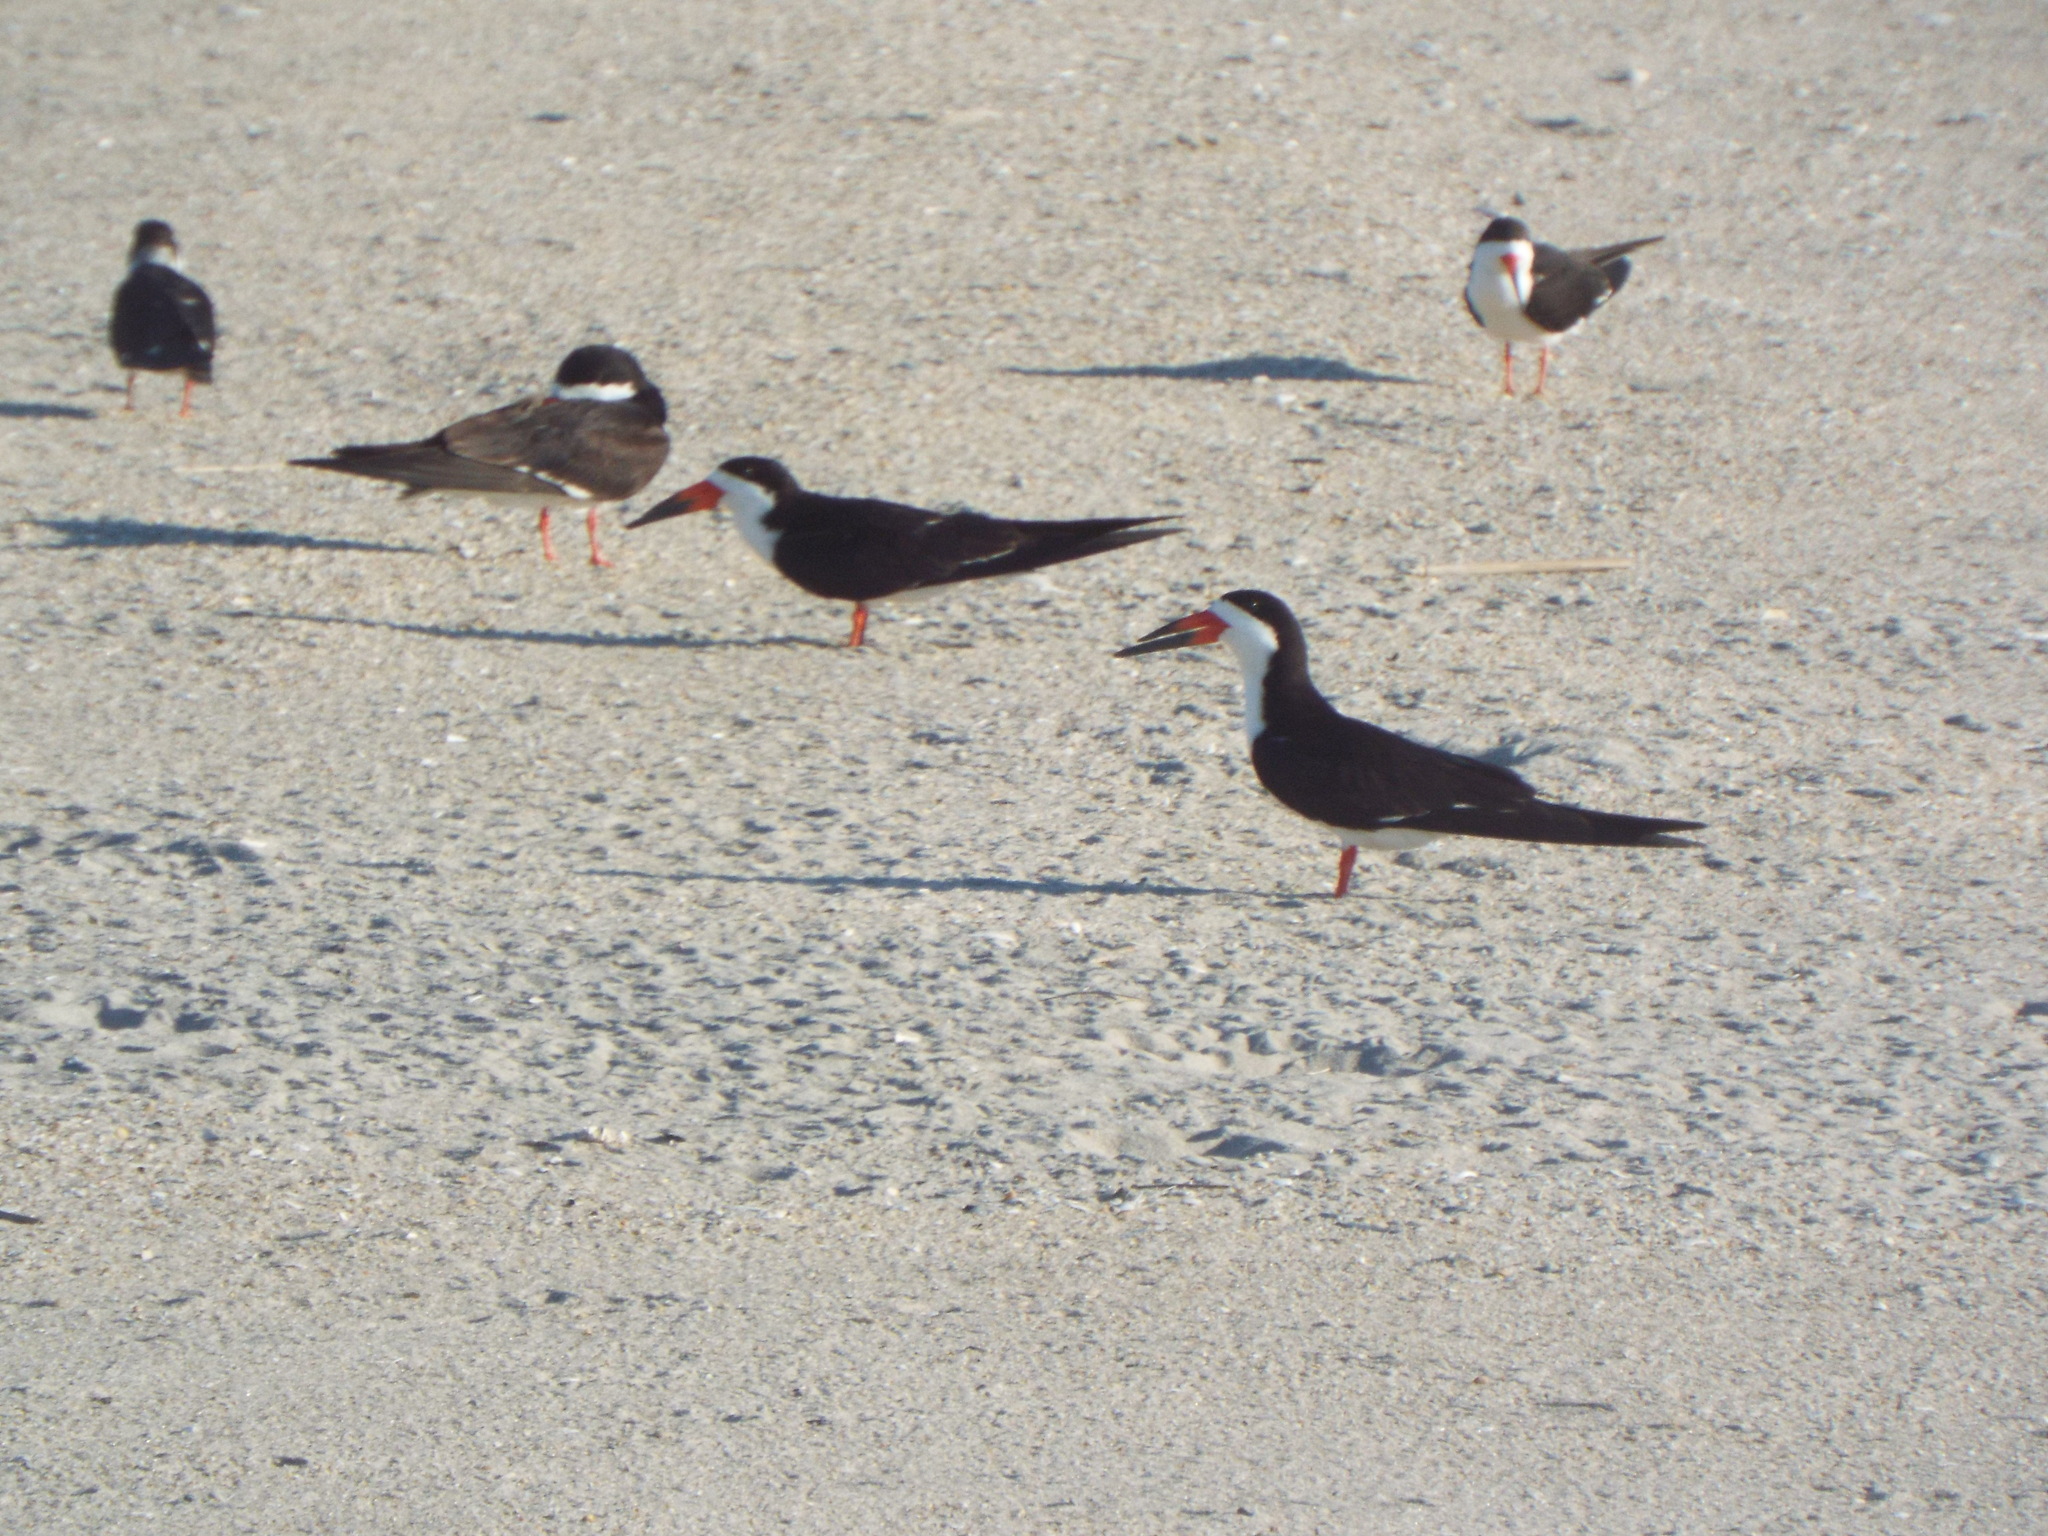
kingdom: Animalia
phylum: Chordata
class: Aves
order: Charadriiformes
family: Laridae
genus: Rynchops
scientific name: Rynchops niger
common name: Black skimmer
